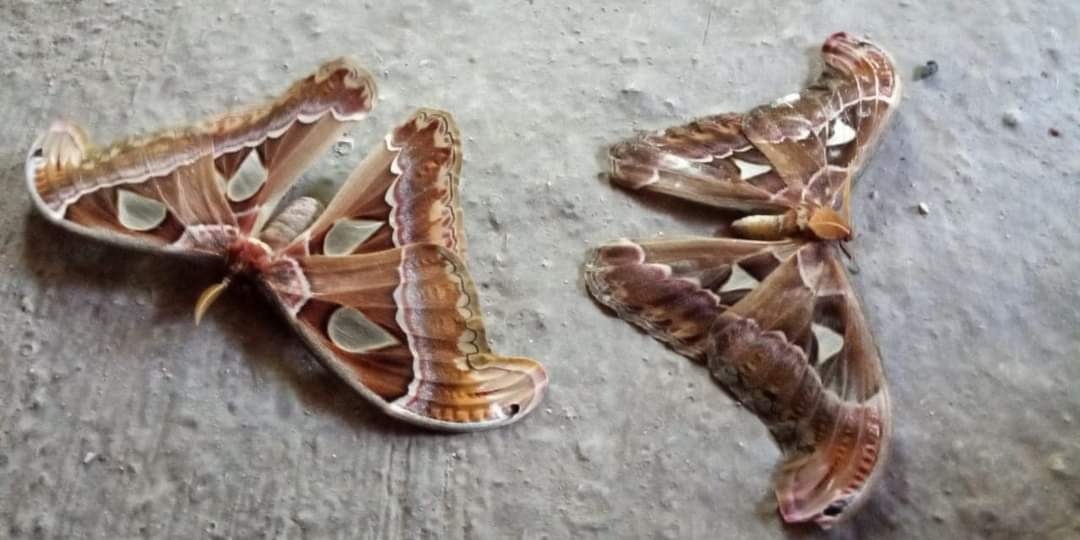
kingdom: Animalia
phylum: Arthropoda
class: Insecta
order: Lepidoptera
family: Saturniidae
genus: Attacus
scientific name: Attacus dohertyi
